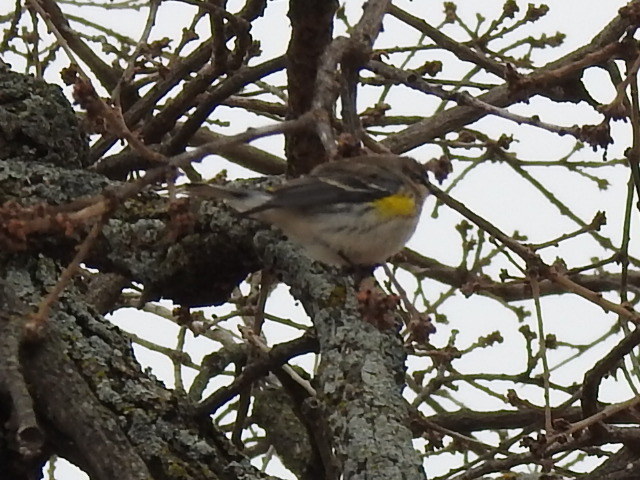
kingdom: Animalia
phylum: Chordata
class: Aves
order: Passeriformes
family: Parulidae
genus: Setophaga
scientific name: Setophaga coronata
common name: Myrtle warbler
